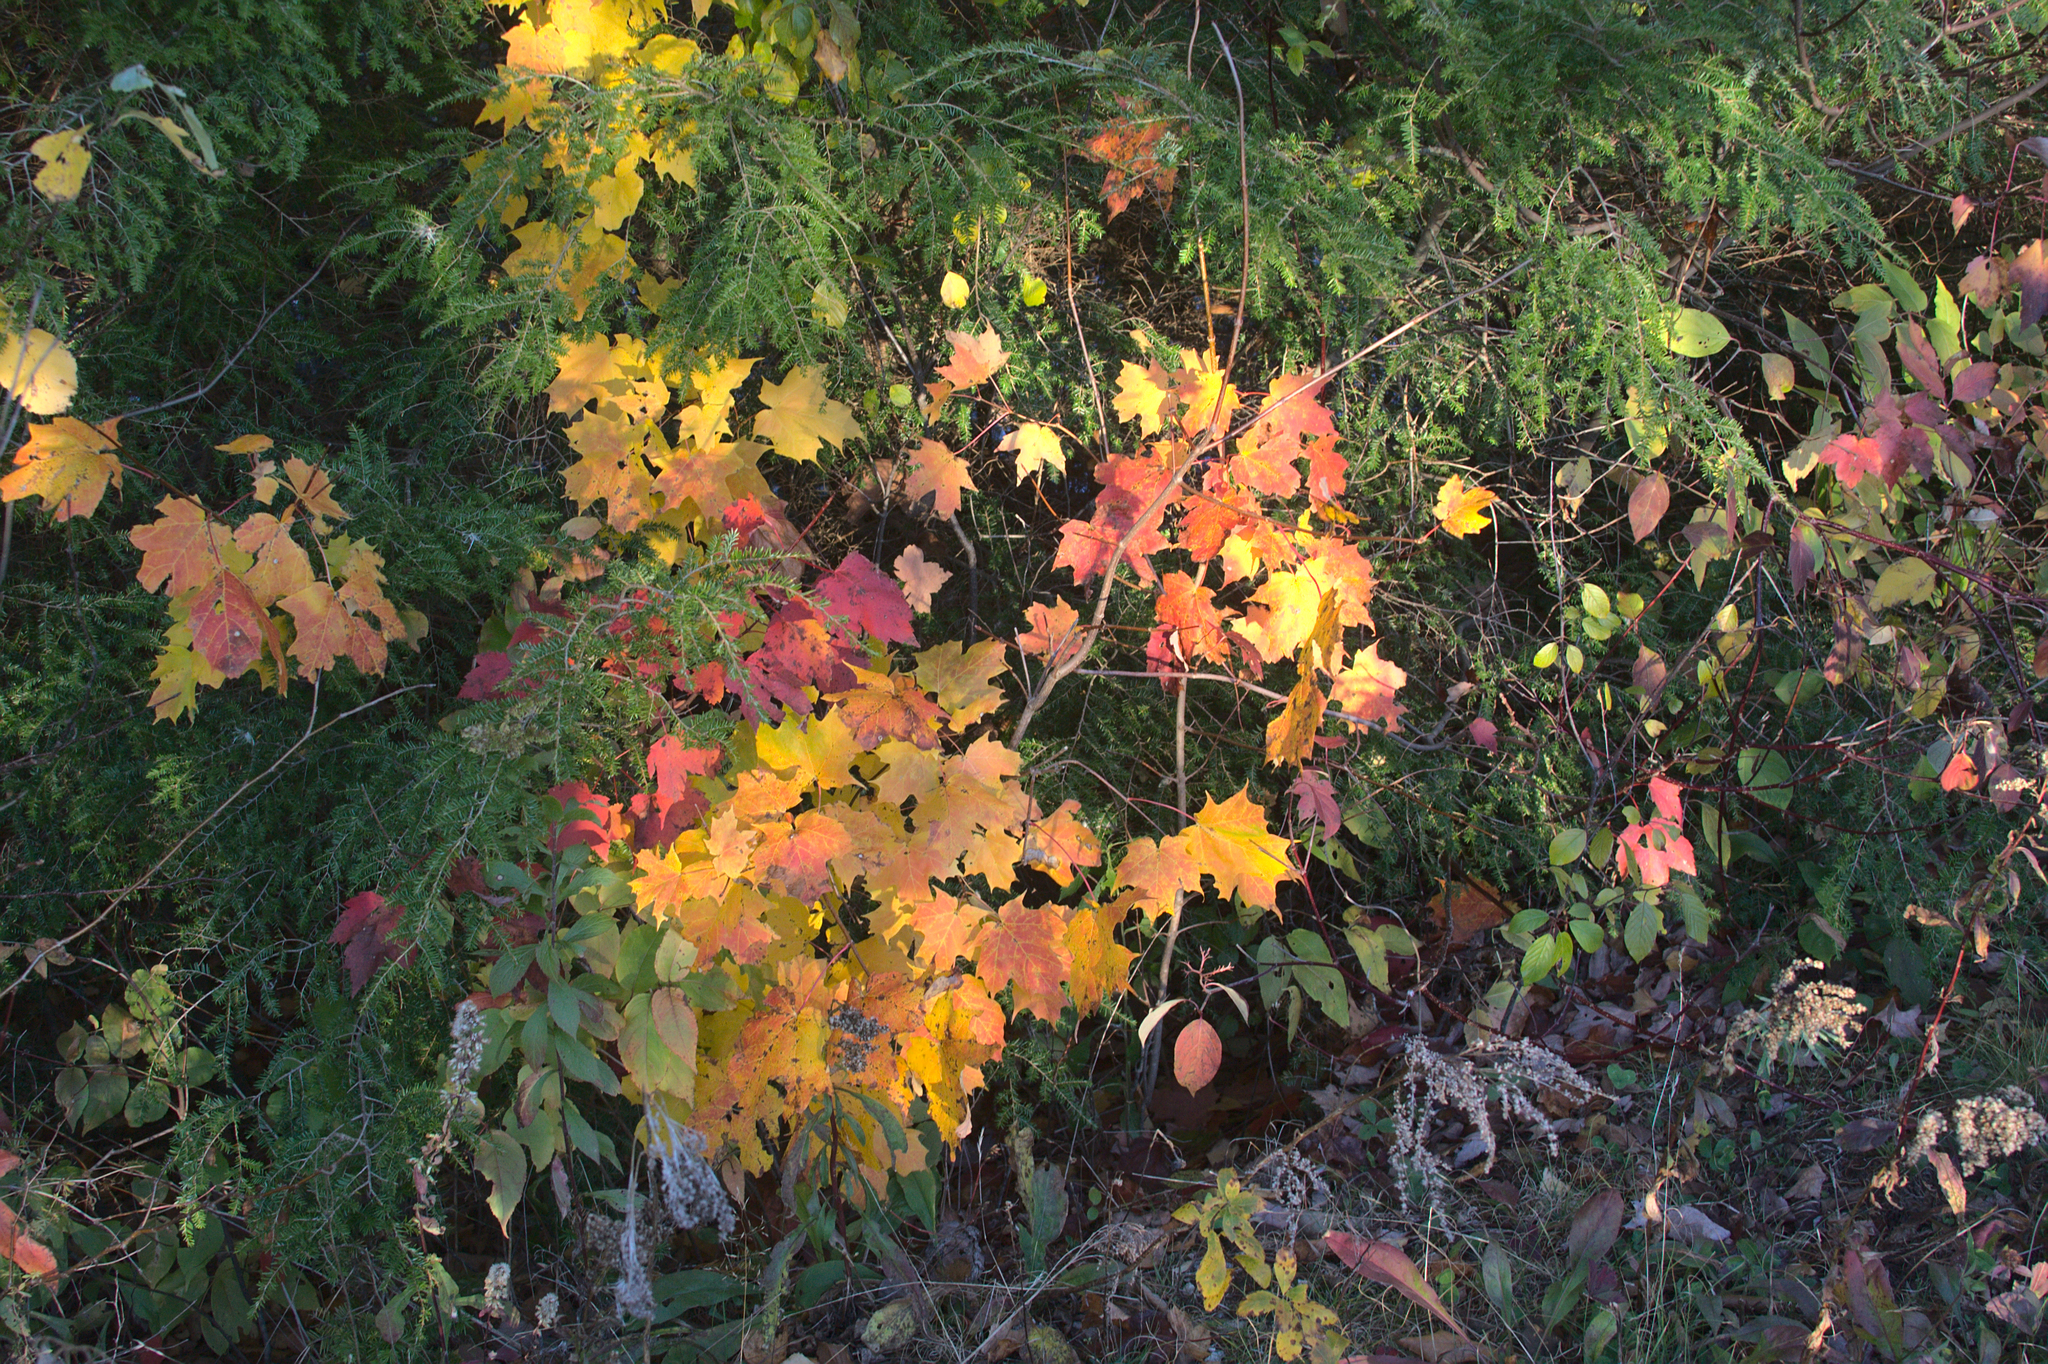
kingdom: Plantae
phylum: Tracheophyta
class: Magnoliopsida
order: Sapindales
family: Sapindaceae
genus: Acer
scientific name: Acer saccharum
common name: Sugar maple
